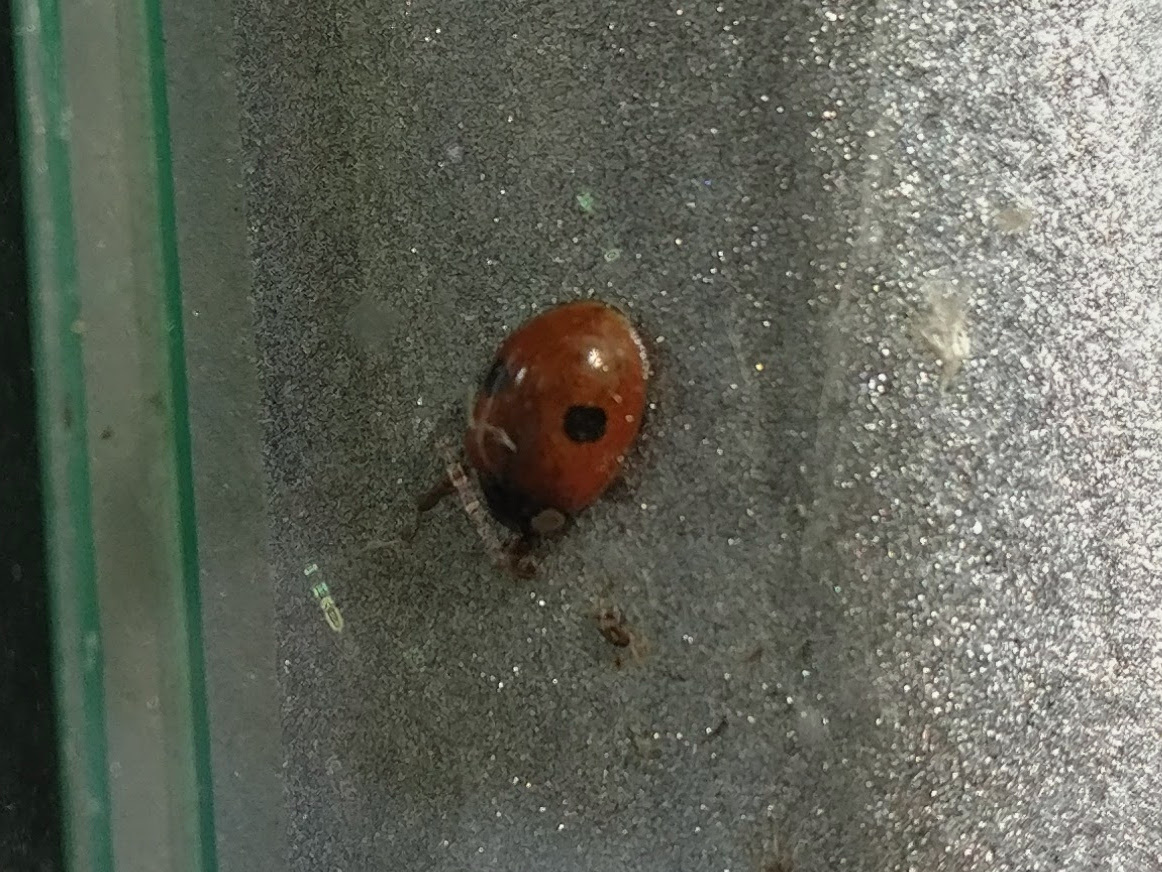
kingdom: Animalia
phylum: Arthropoda
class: Insecta
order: Coleoptera
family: Coccinellidae
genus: Adalia
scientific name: Adalia bipunctata
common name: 2-spot ladybird
